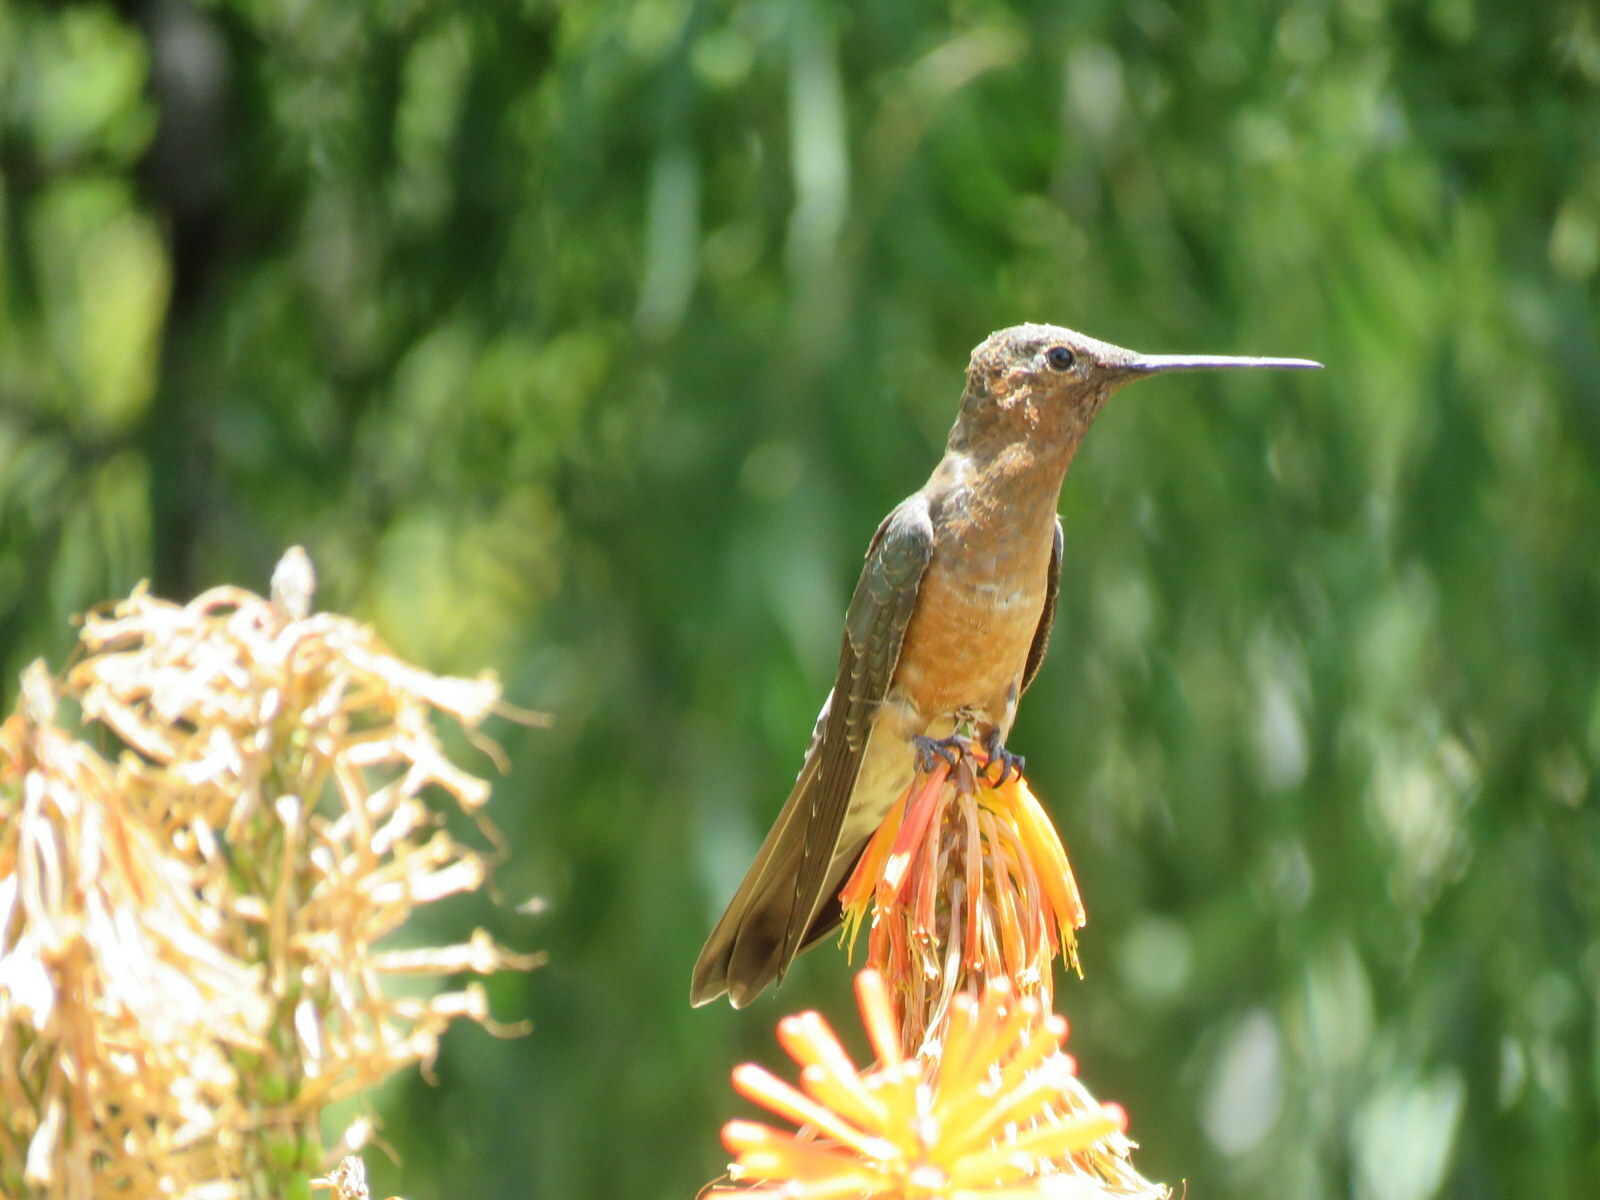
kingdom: Animalia
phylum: Chordata
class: Aves
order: Apodiformes
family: Trochilidae
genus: Patagona
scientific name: Patagona gigas
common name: Giant hummingbird
